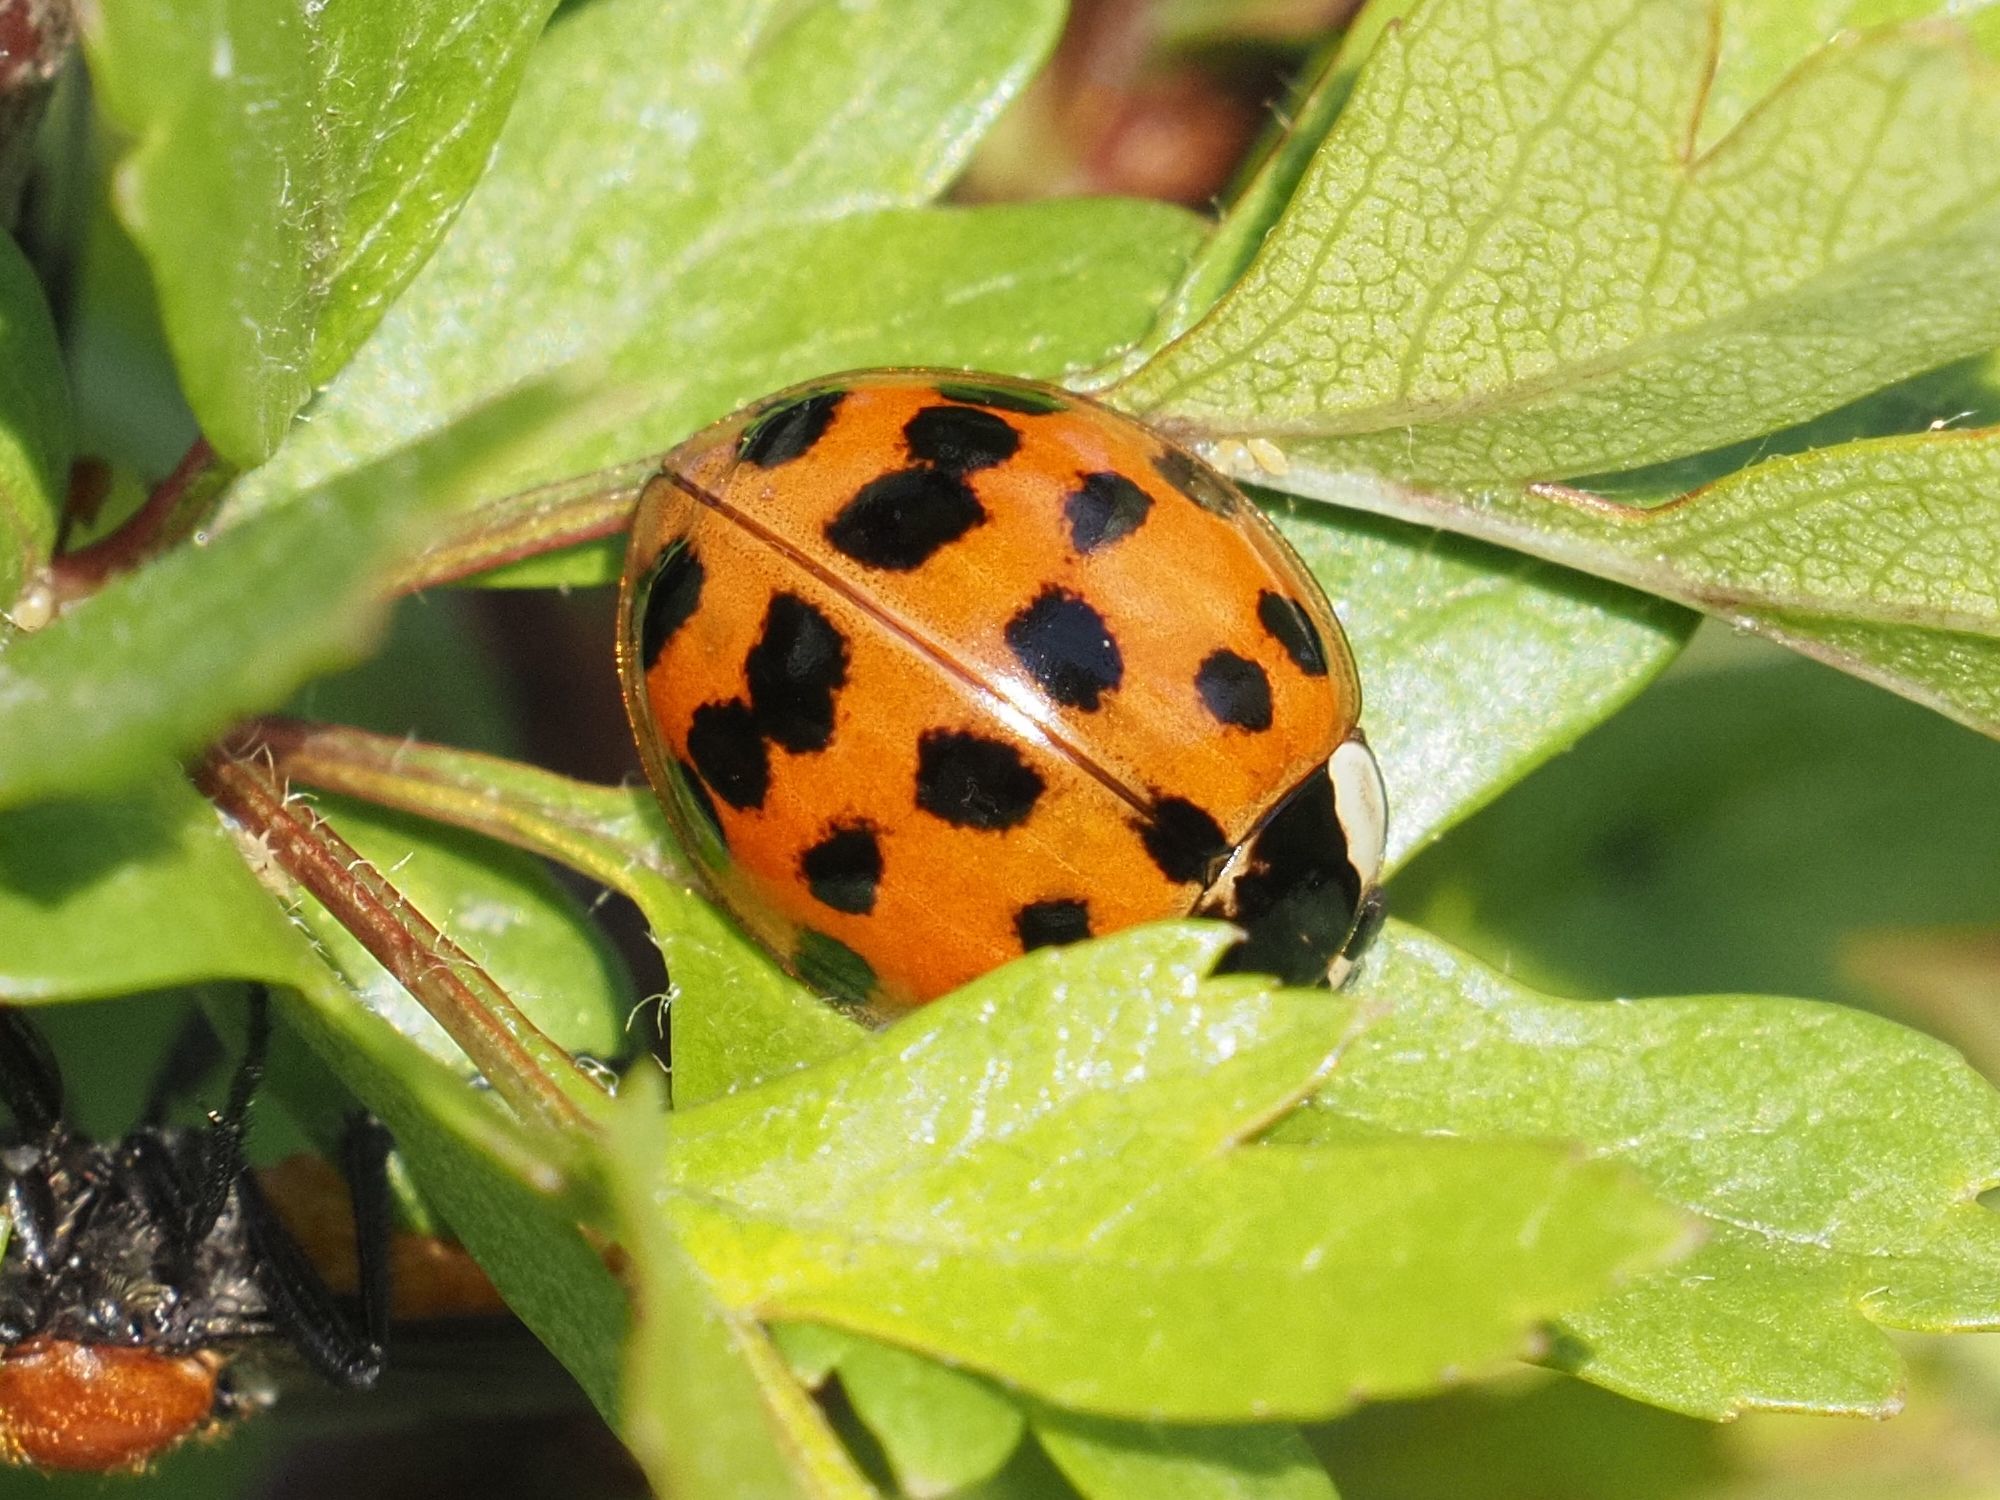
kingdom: Animalia
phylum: Arthropoda
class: Insecta
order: Coleoptera
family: Coccinellidae
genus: Harmonia
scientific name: Harmonia axyridis
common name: Harlequin ladybird
